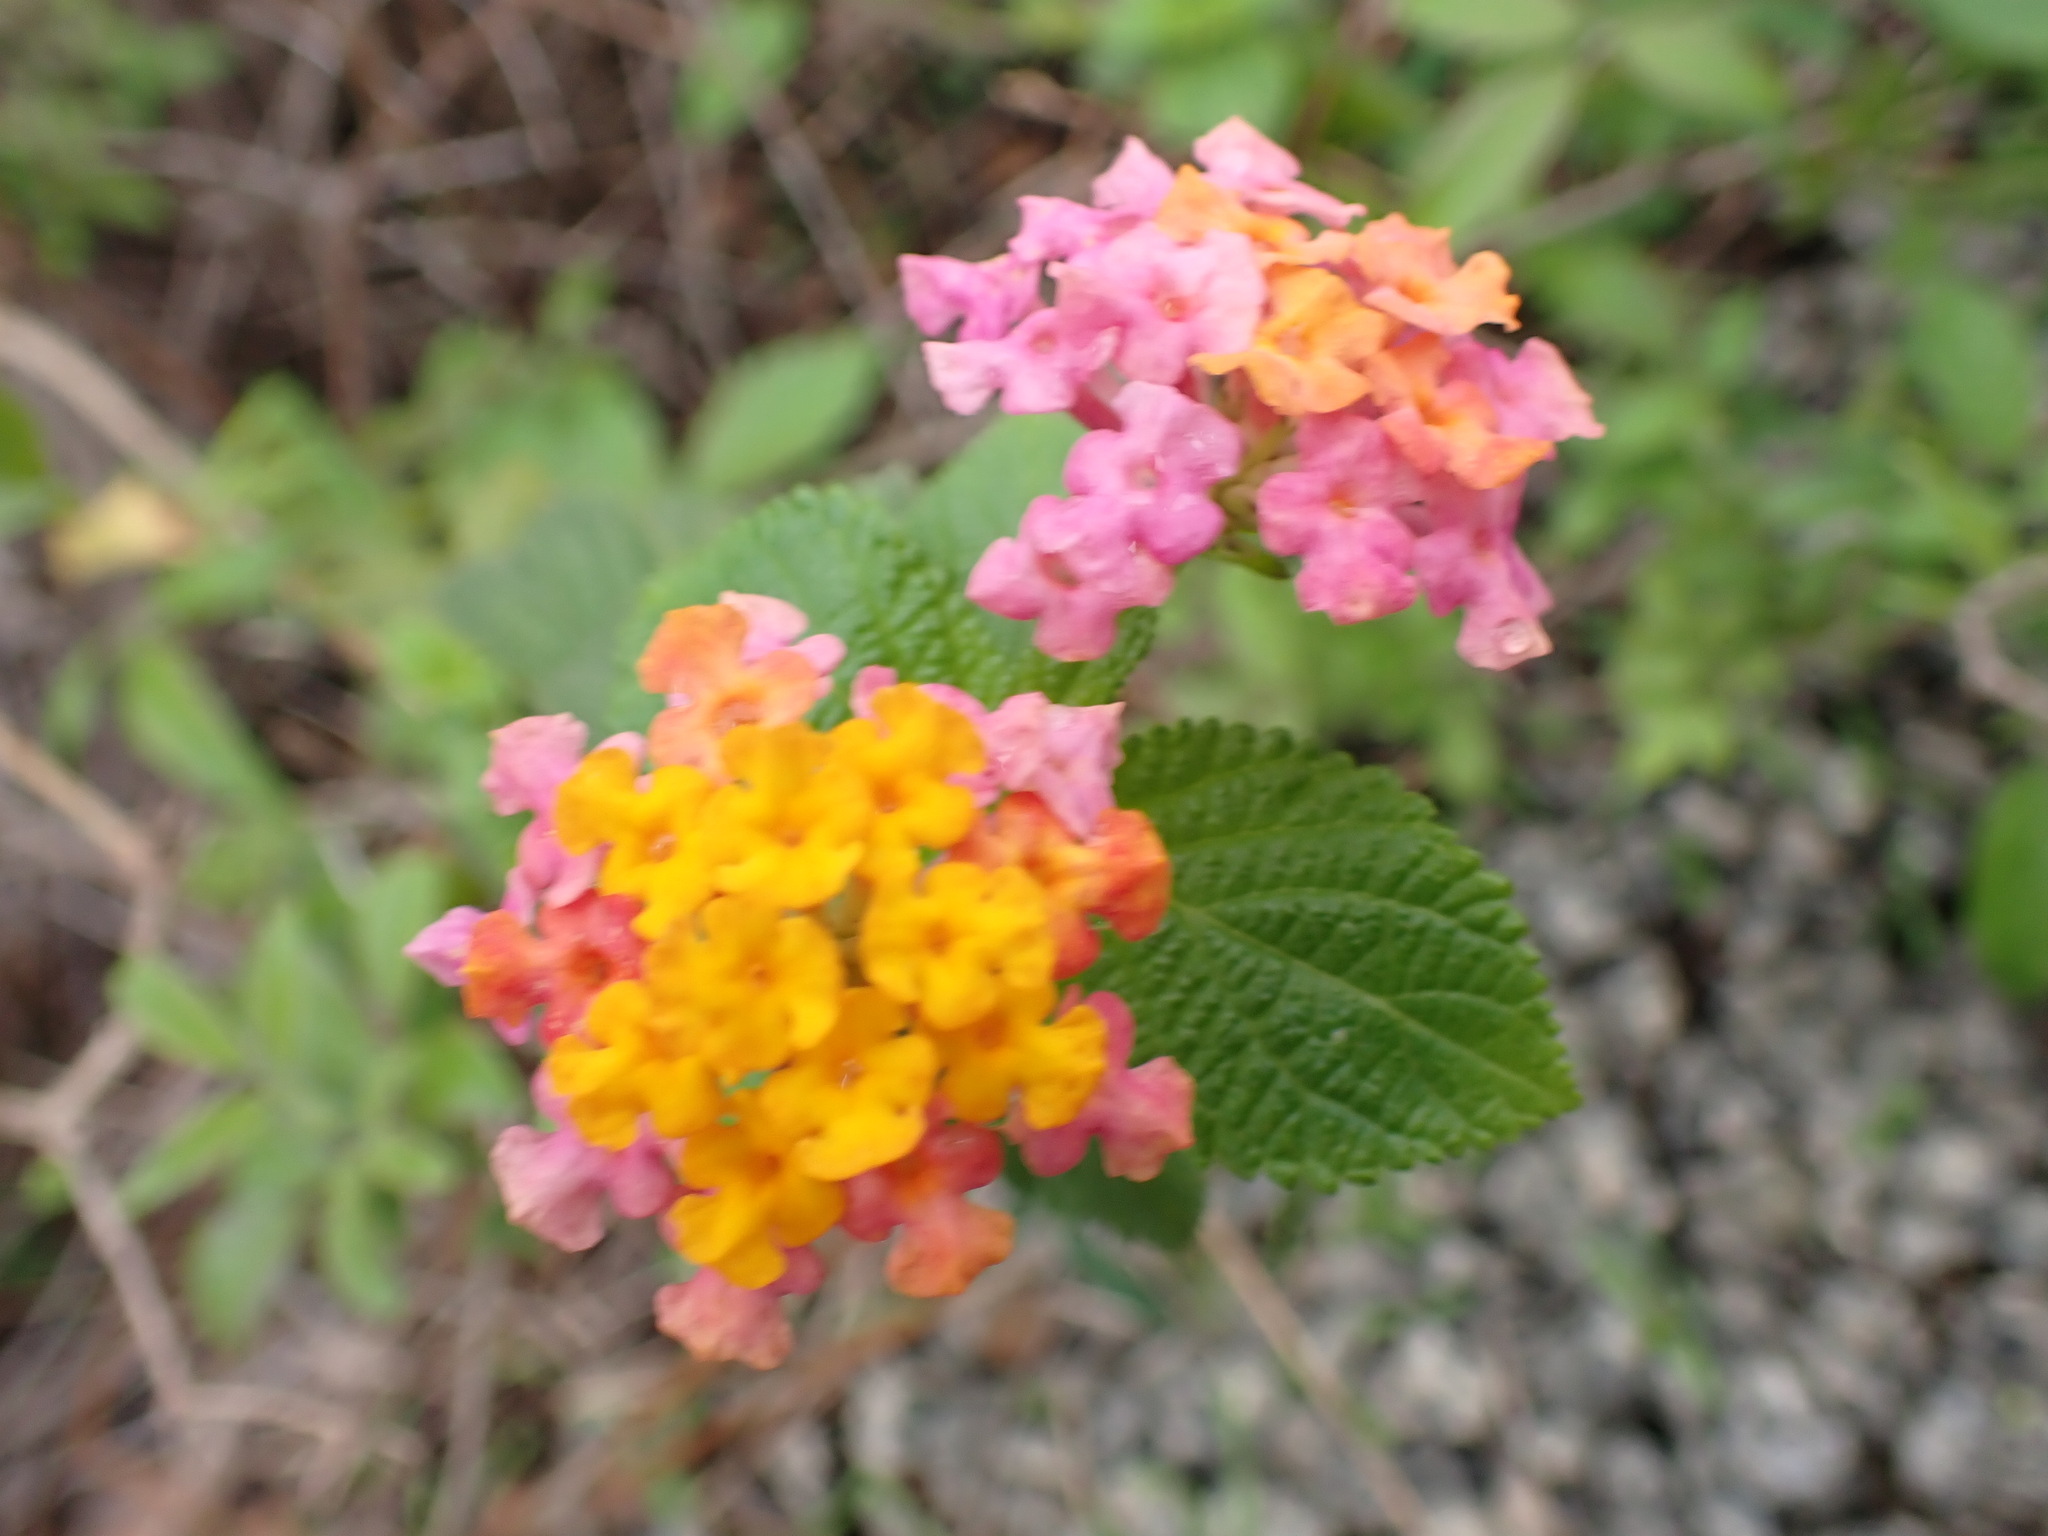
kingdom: Plantae
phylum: Tracheophyta
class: Magnoliopsida
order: Lamiales
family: Verbenaceae
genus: Lantana
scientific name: Lantana camara
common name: Lantana
